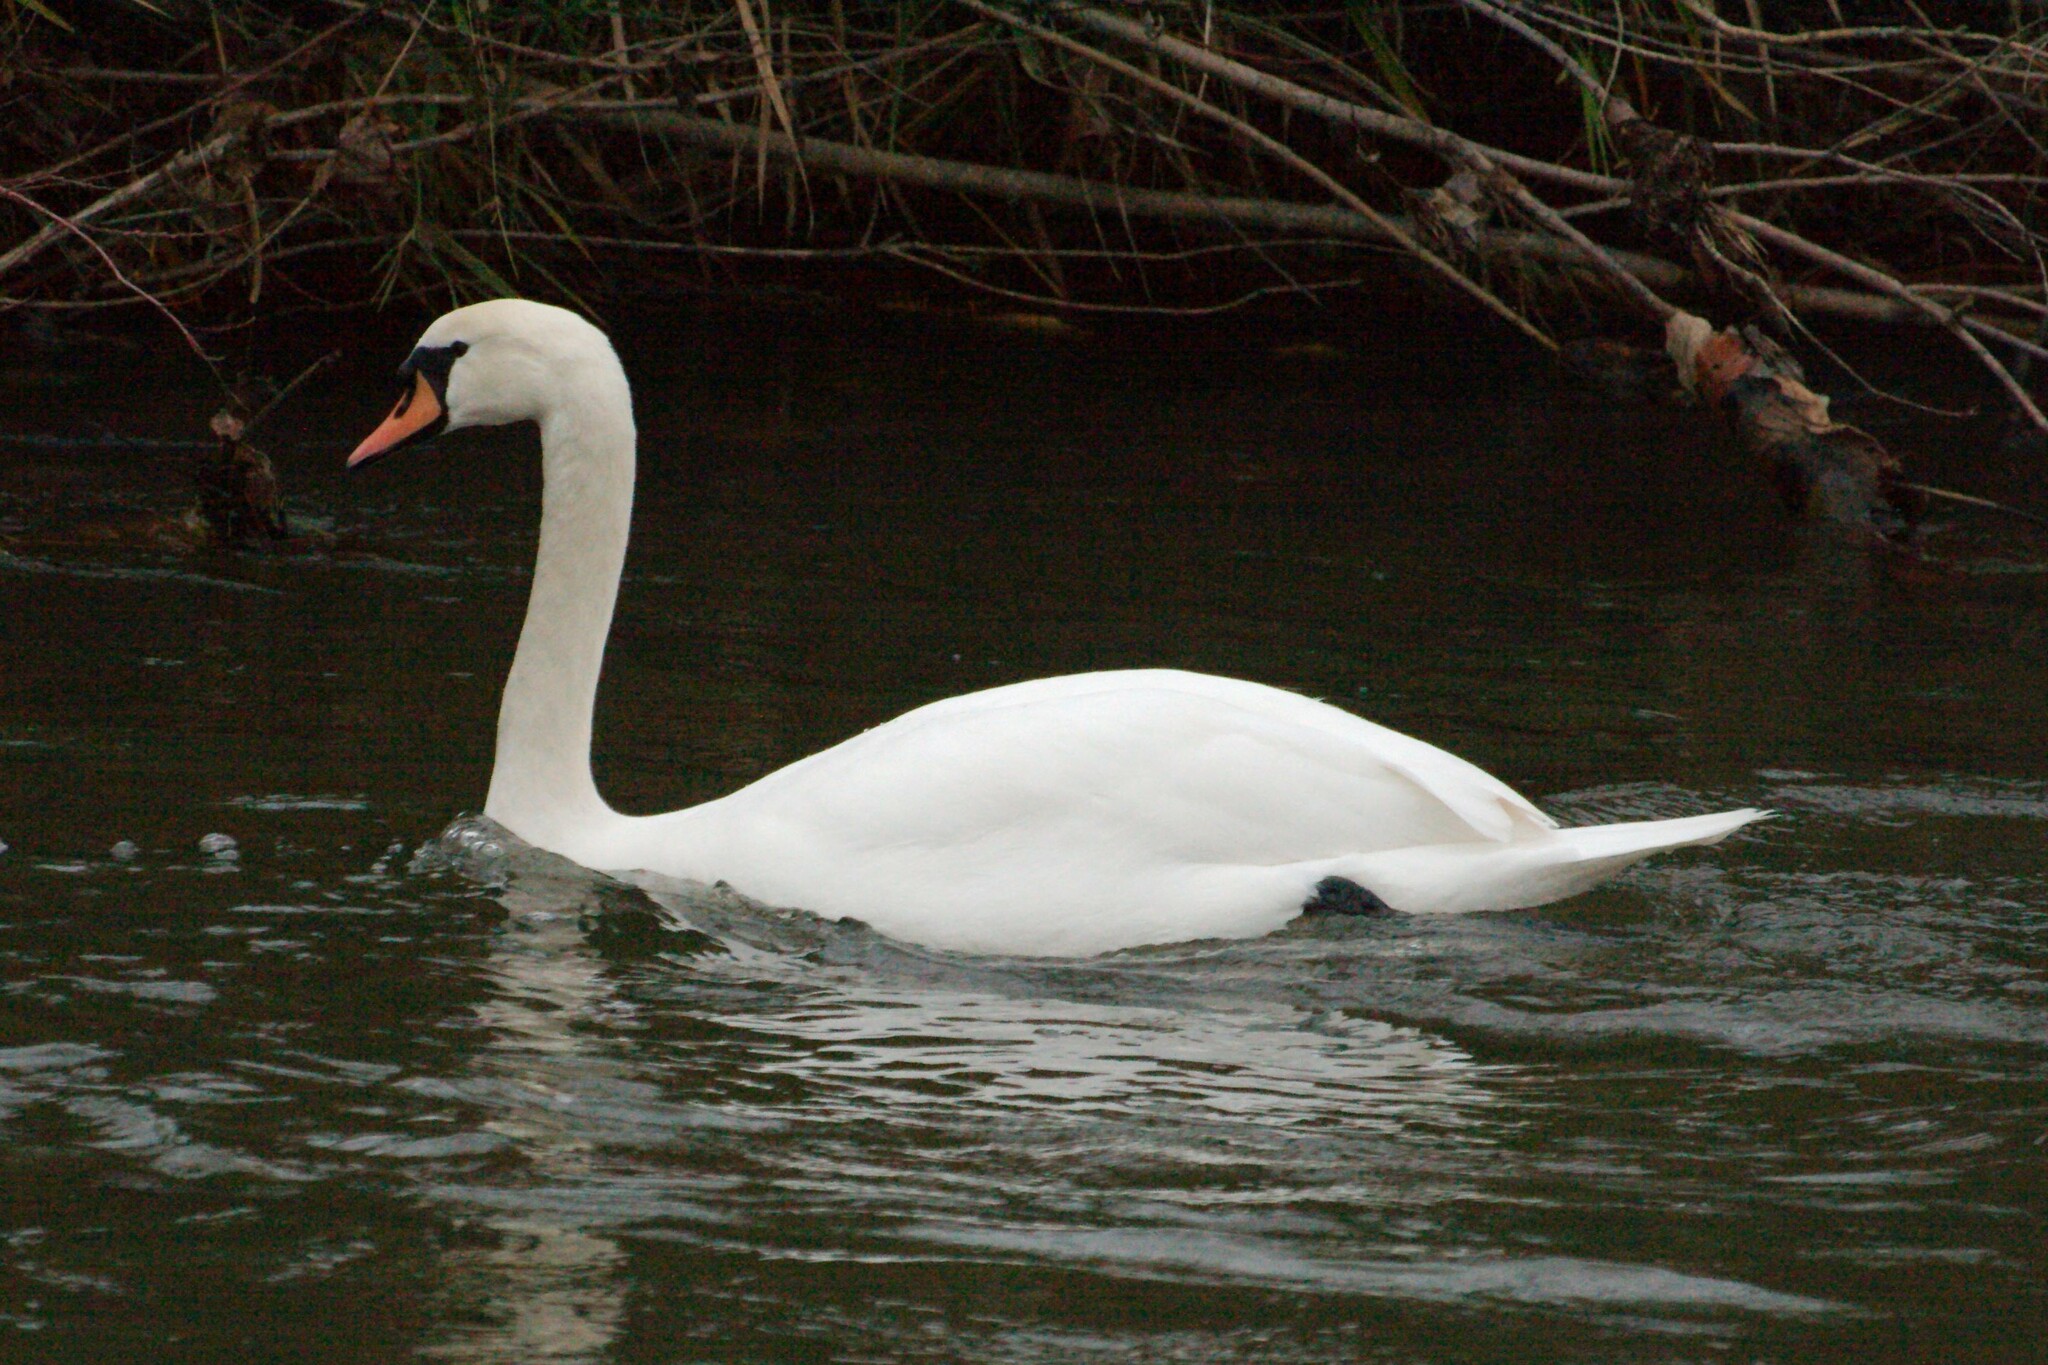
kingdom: Animalia
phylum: Chordata
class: Aves
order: Anseriformes
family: Anatidae
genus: Cygnus
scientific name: Cygnus olor
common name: Mute swan
